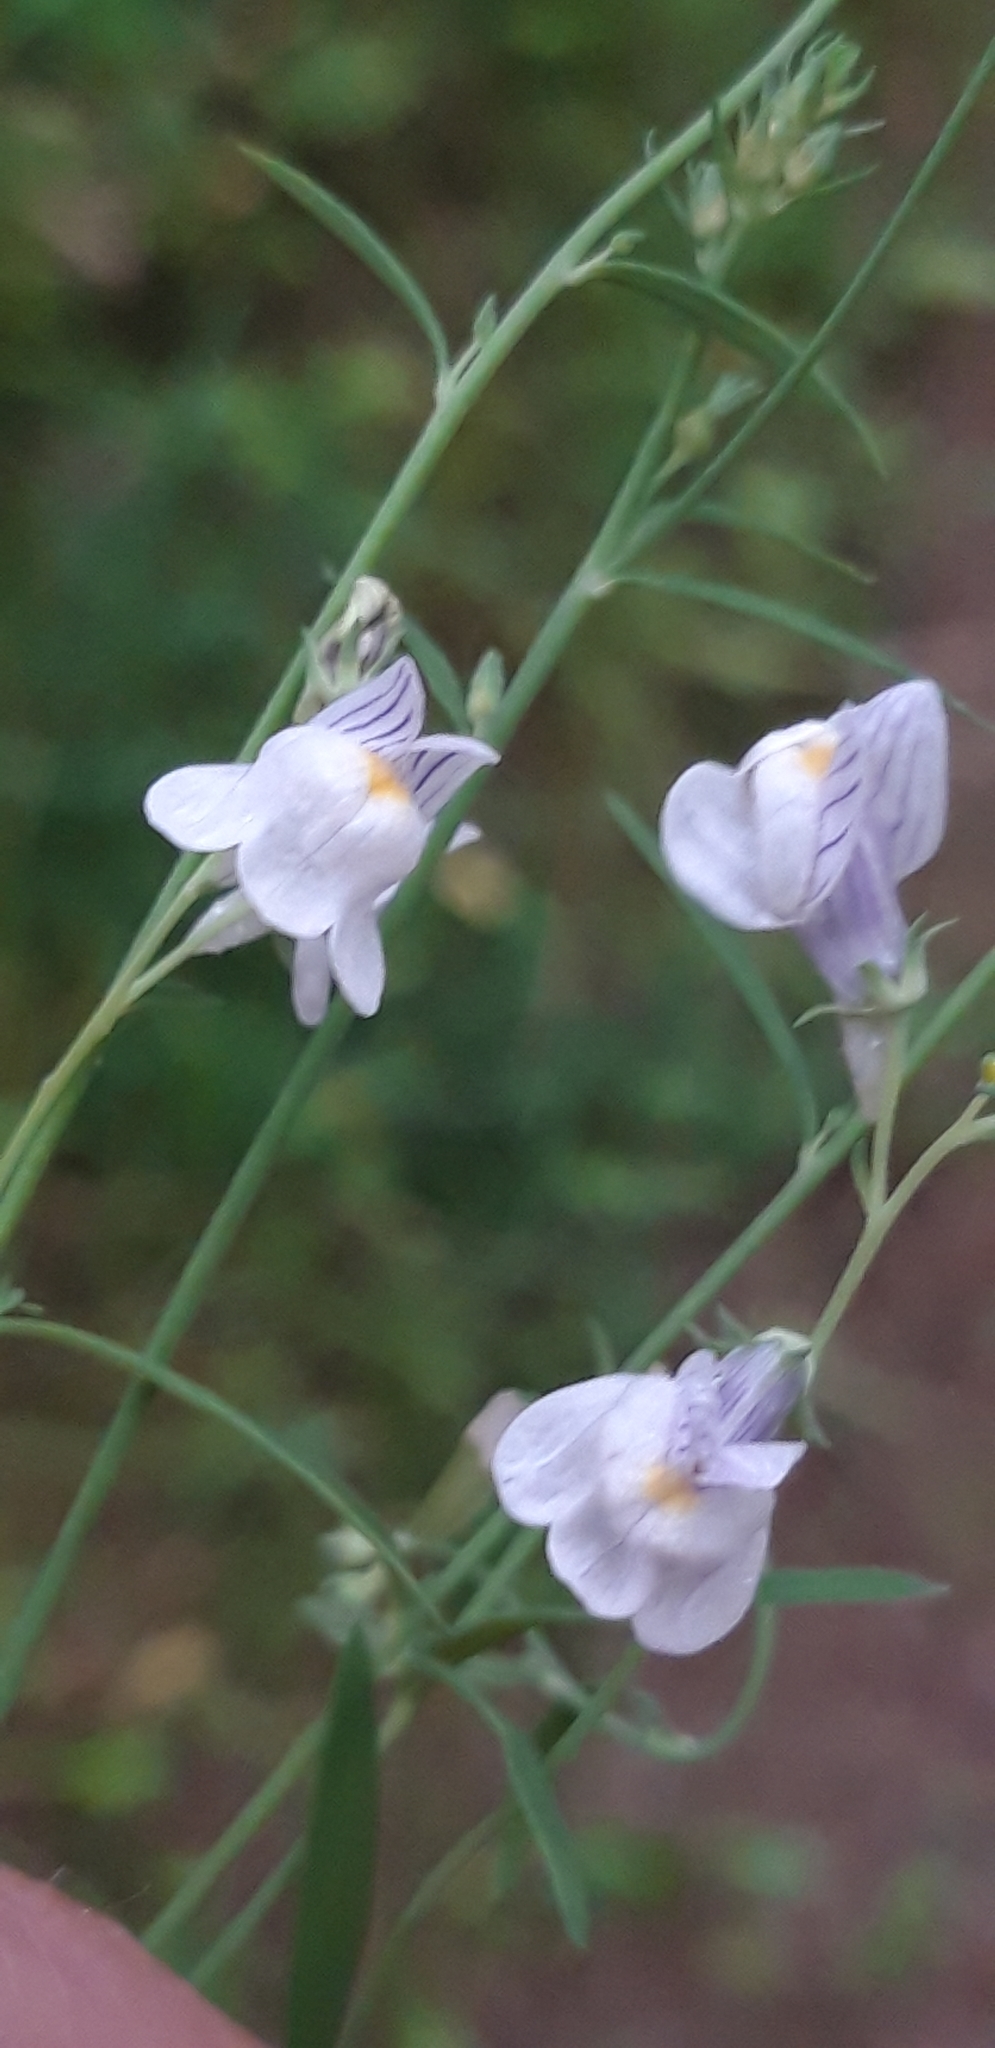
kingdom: Plantae
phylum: Tracheophyta
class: Magnoliopsida
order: Lamiales
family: Plantaginaceae
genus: Linaria
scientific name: Linaria repens
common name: Pale toadflax
